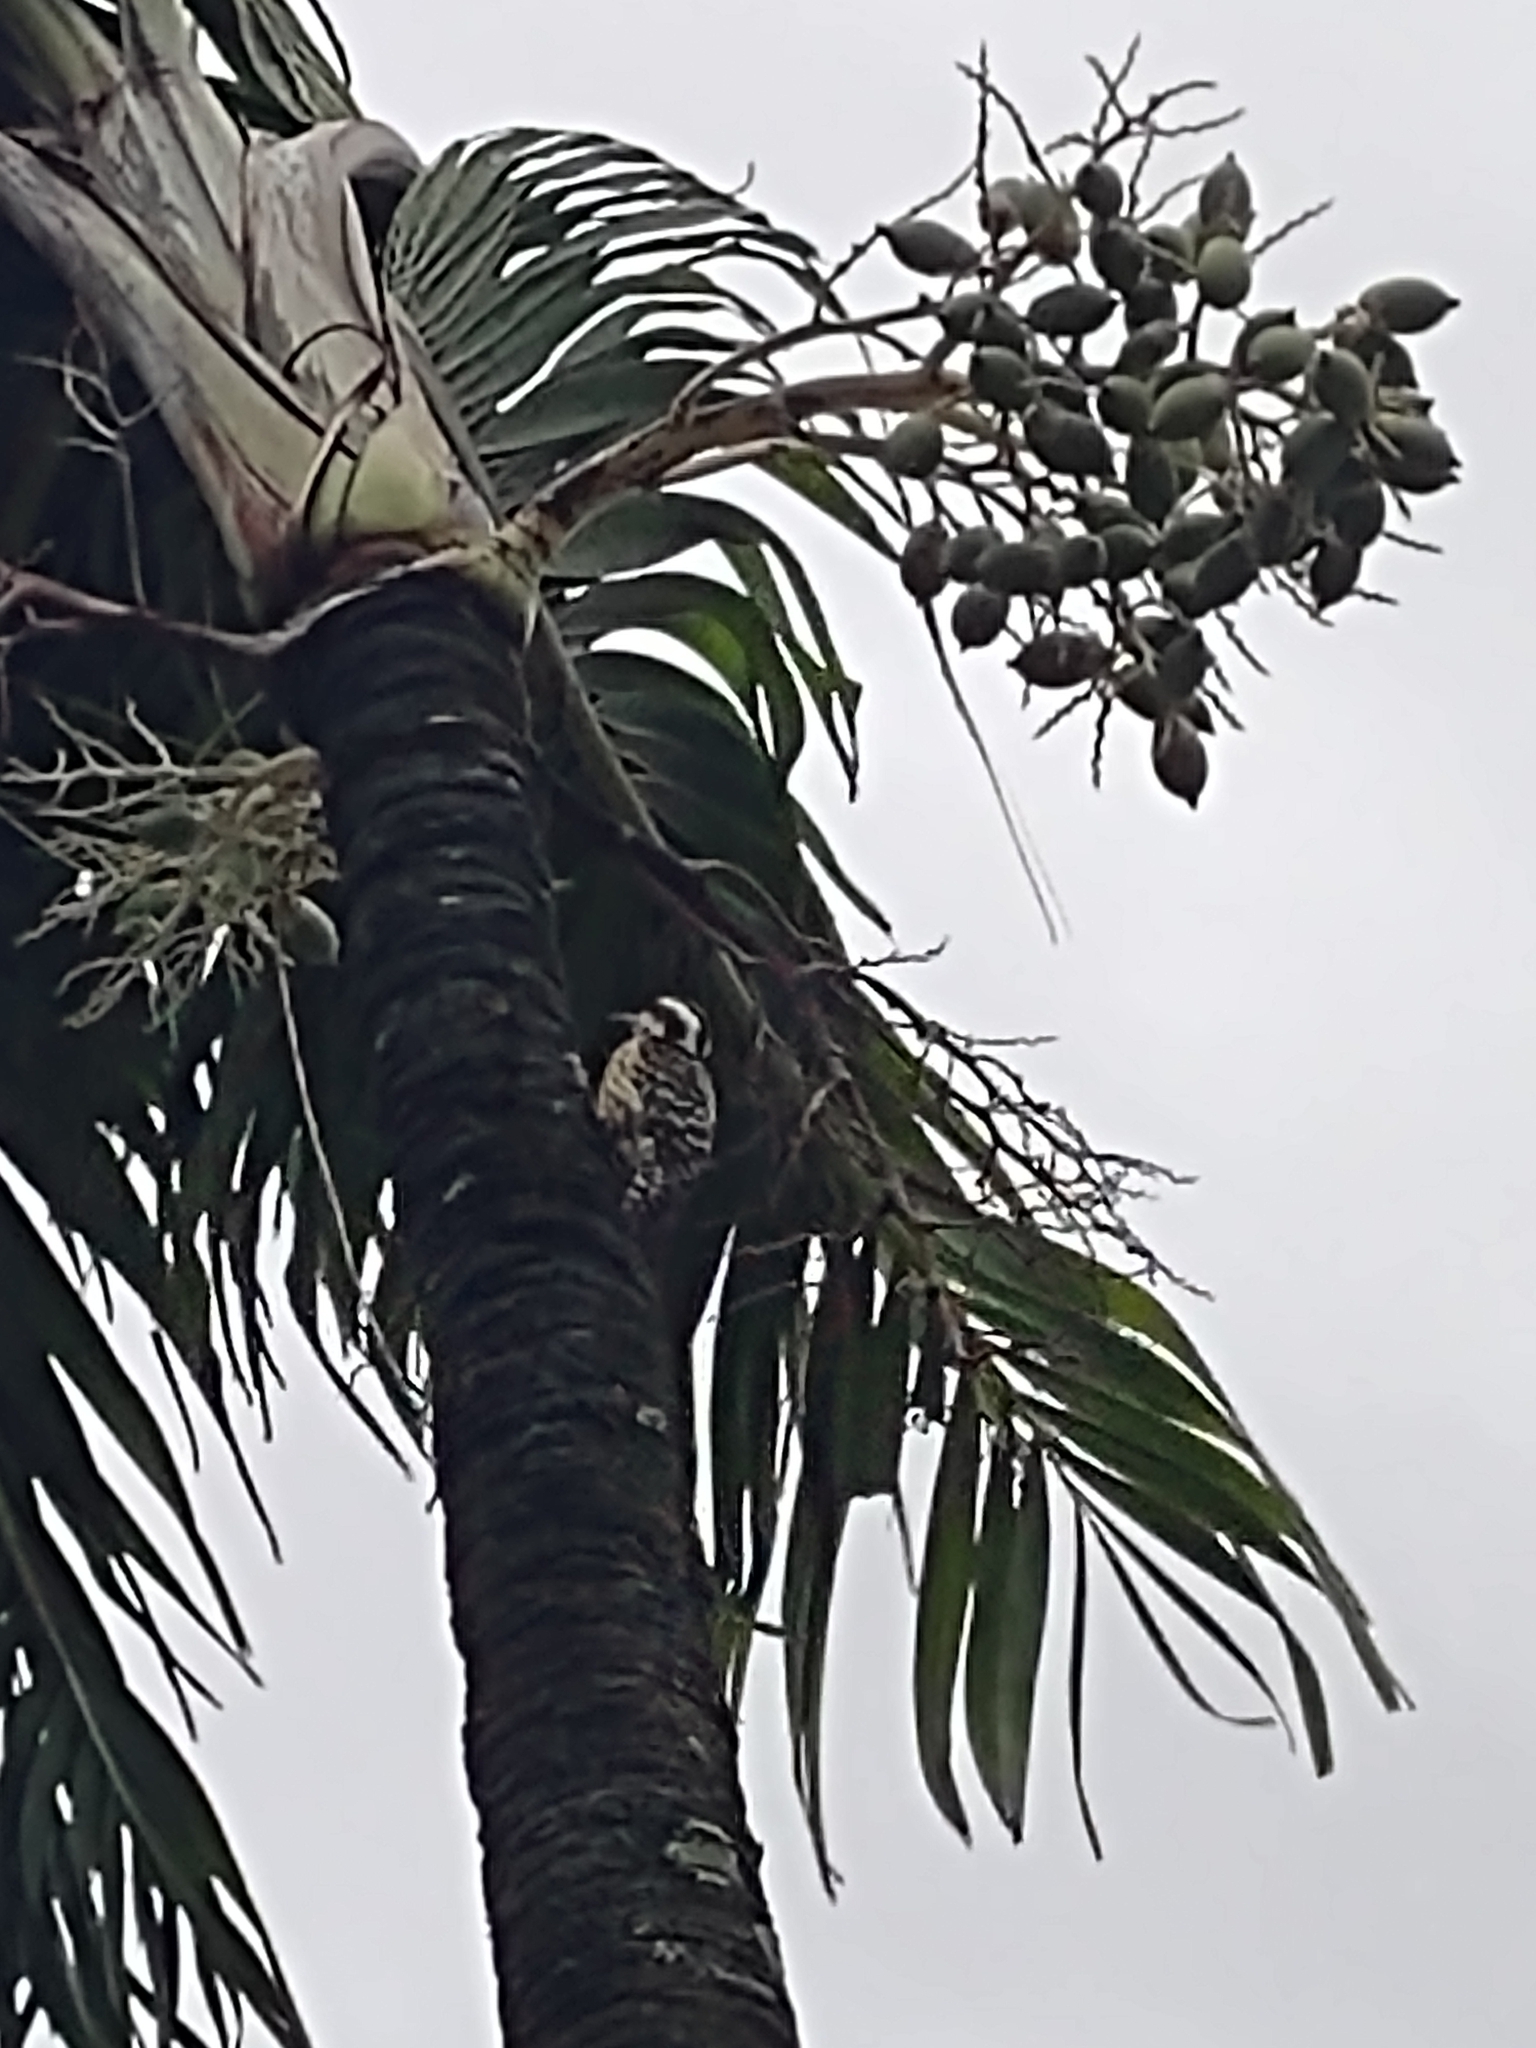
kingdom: Animalia
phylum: Chordata
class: Aves
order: Piciformes
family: Picidae
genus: Yungipicus
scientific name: Yungipicus maculatus
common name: Philippine pygmy woodpecker
